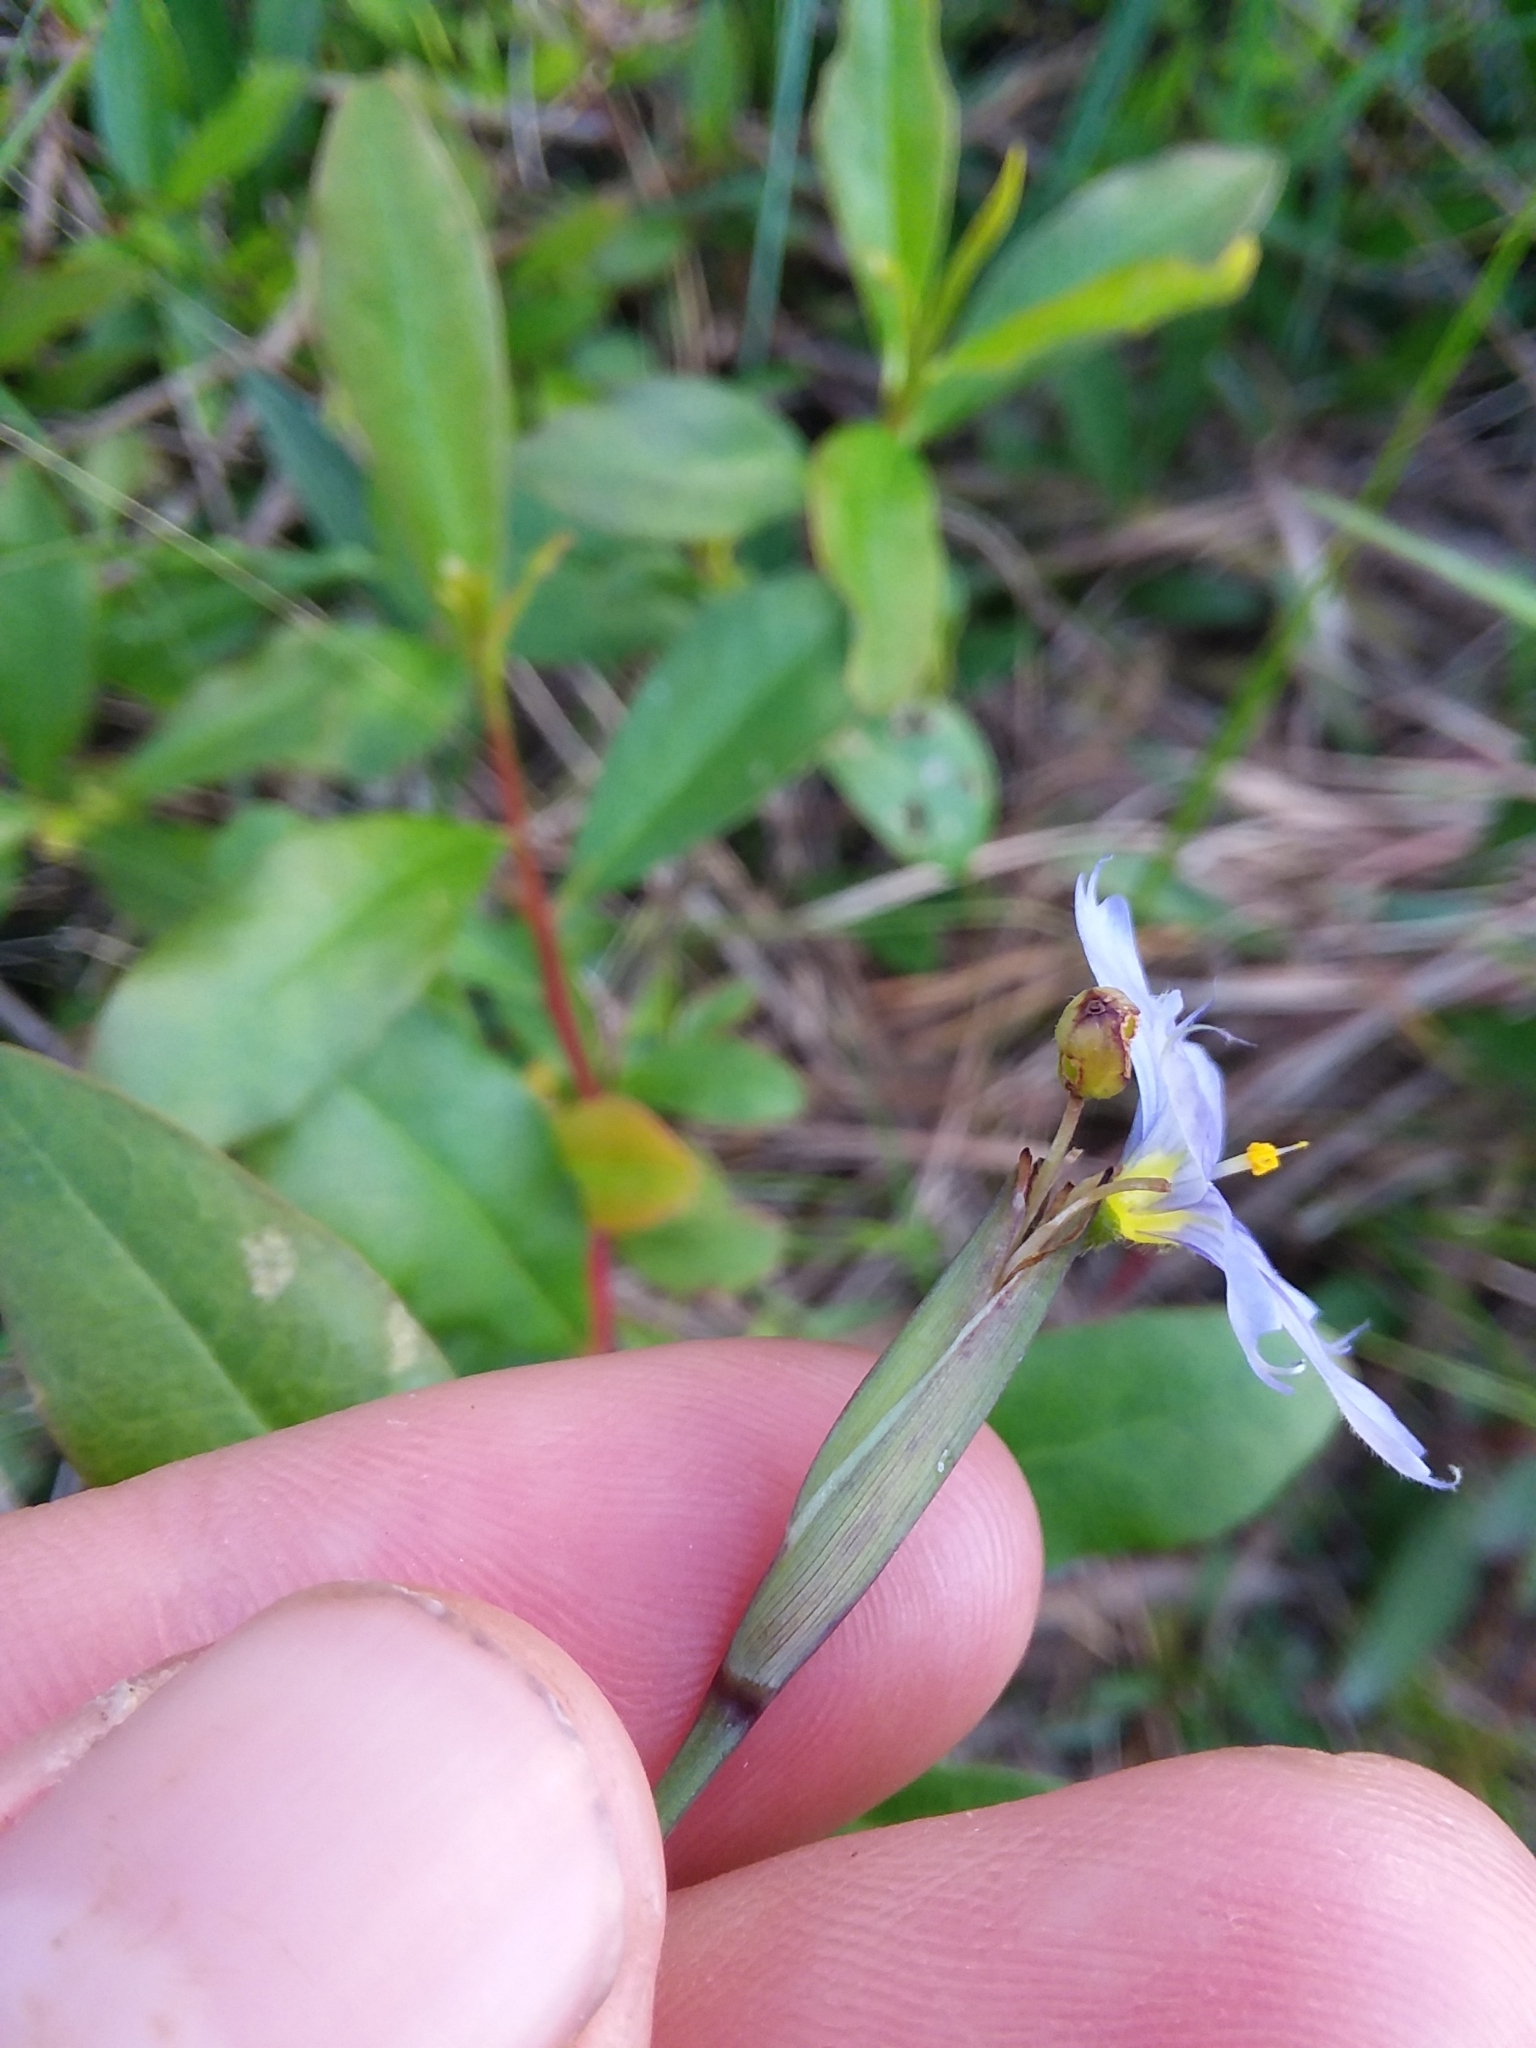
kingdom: Plantae
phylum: Tracheophyta
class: Liliopsida
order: Asparagales
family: Iridaceae
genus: Sisyrinchium
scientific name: Sisyrinchium atlanticum
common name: Eastern blue-eyed-grass
